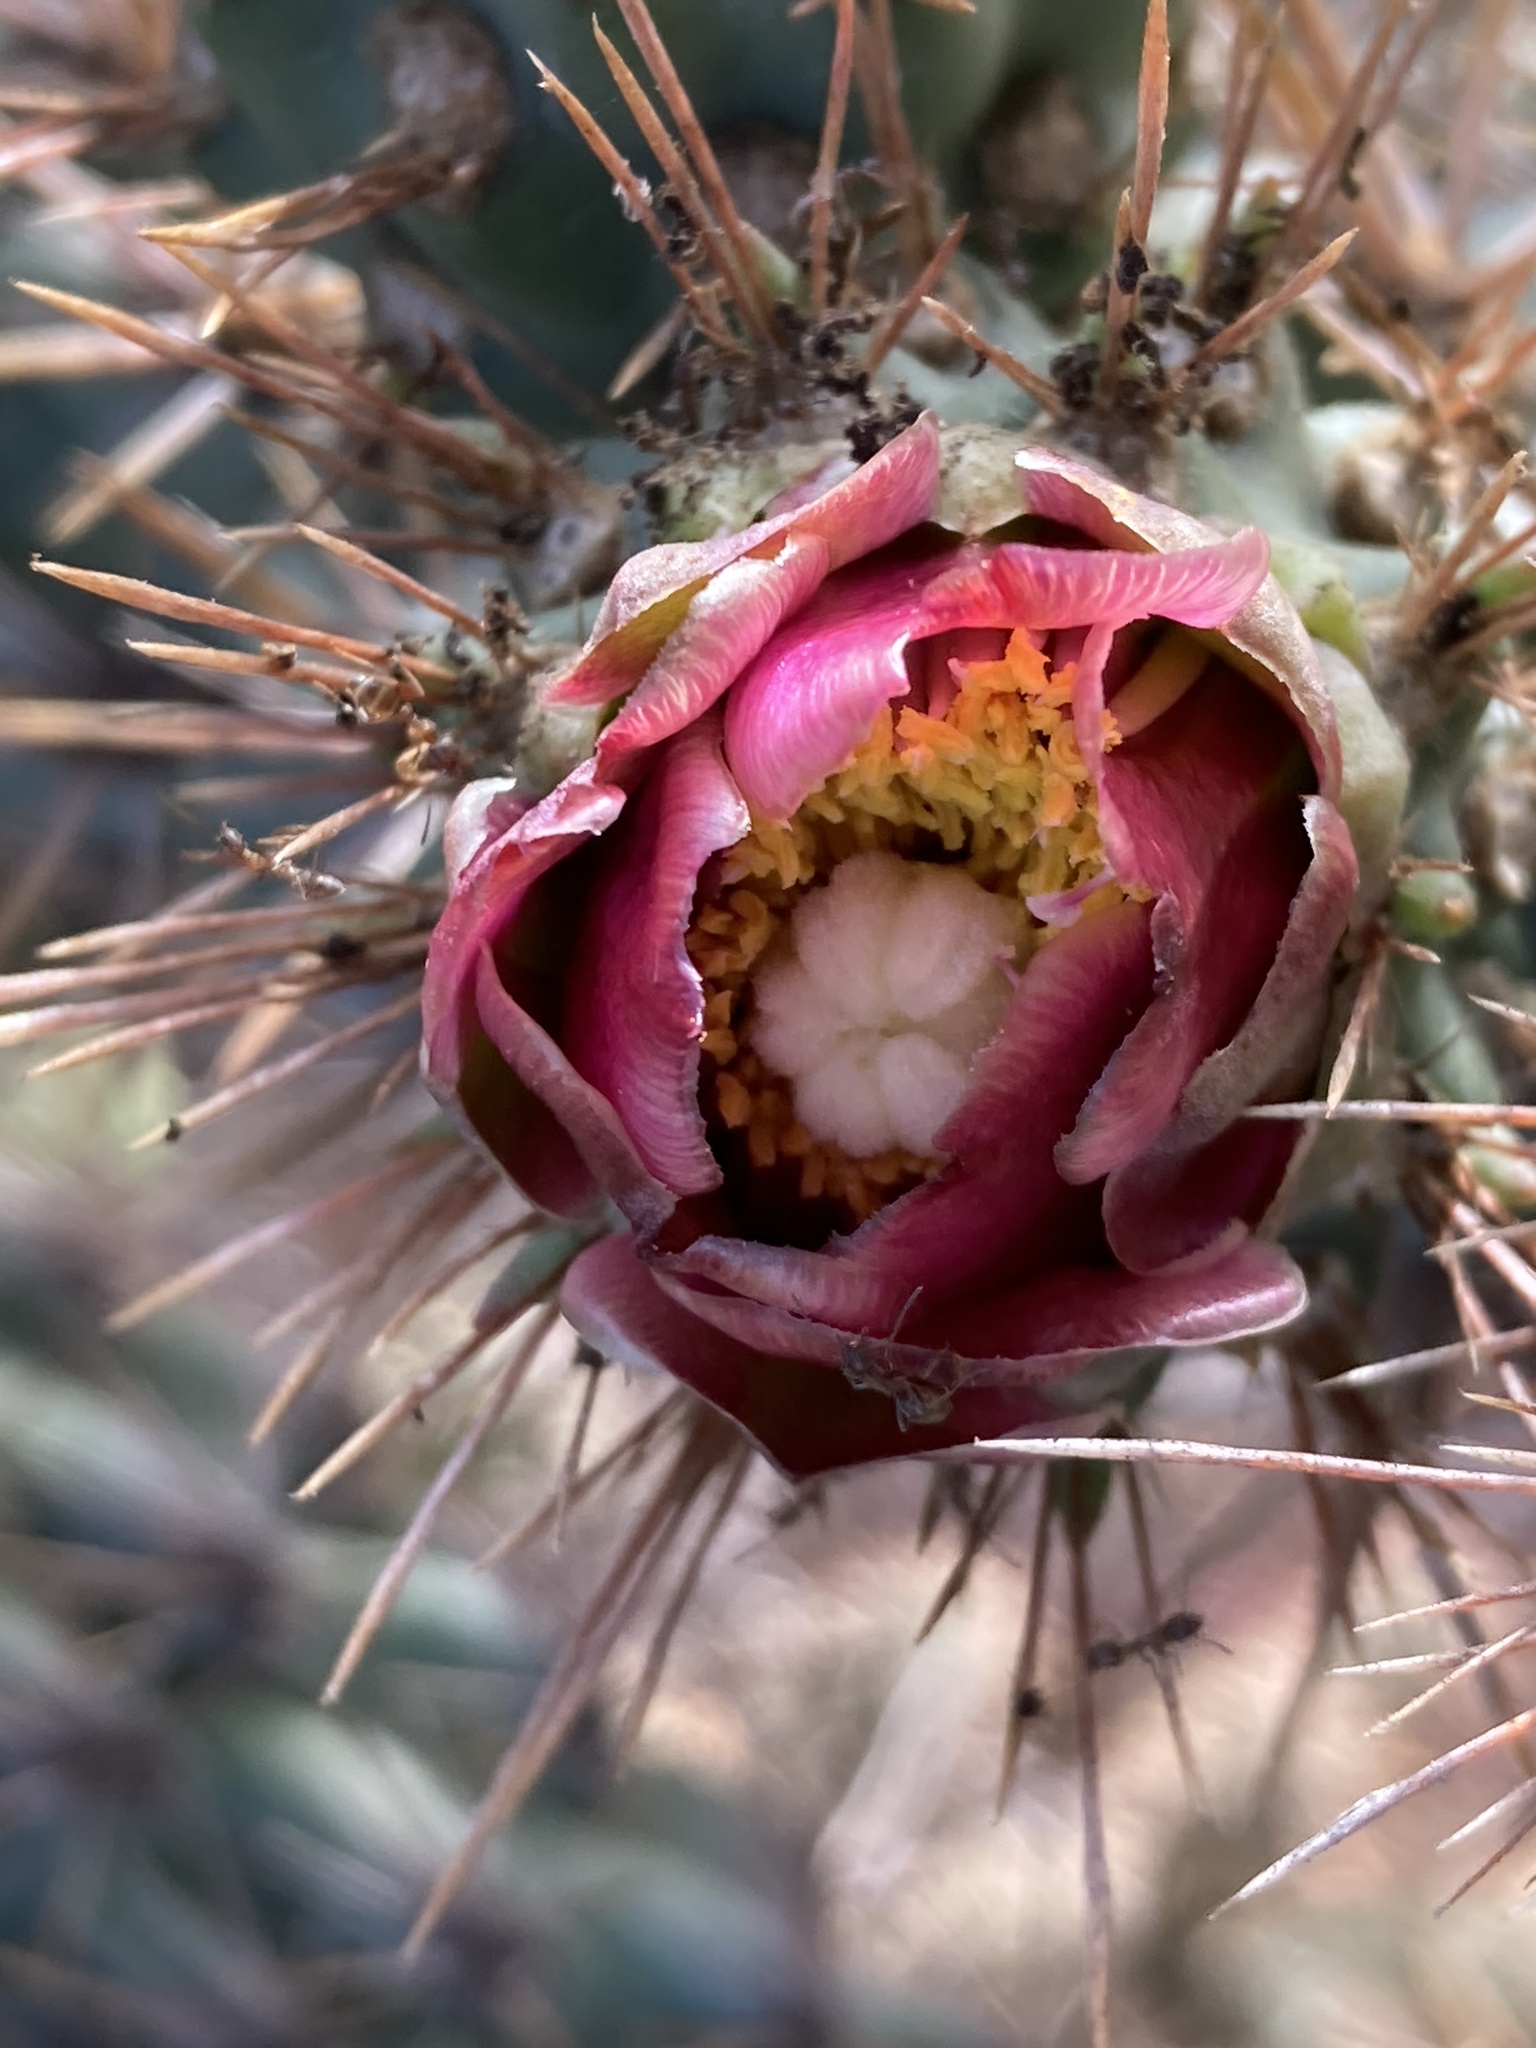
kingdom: Plantae
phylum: Tracheophyta
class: Magnoliopsida
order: Caryophyllales
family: Cactaceae
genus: Cylindropuntia
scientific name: Cylindropuntia prolifera
